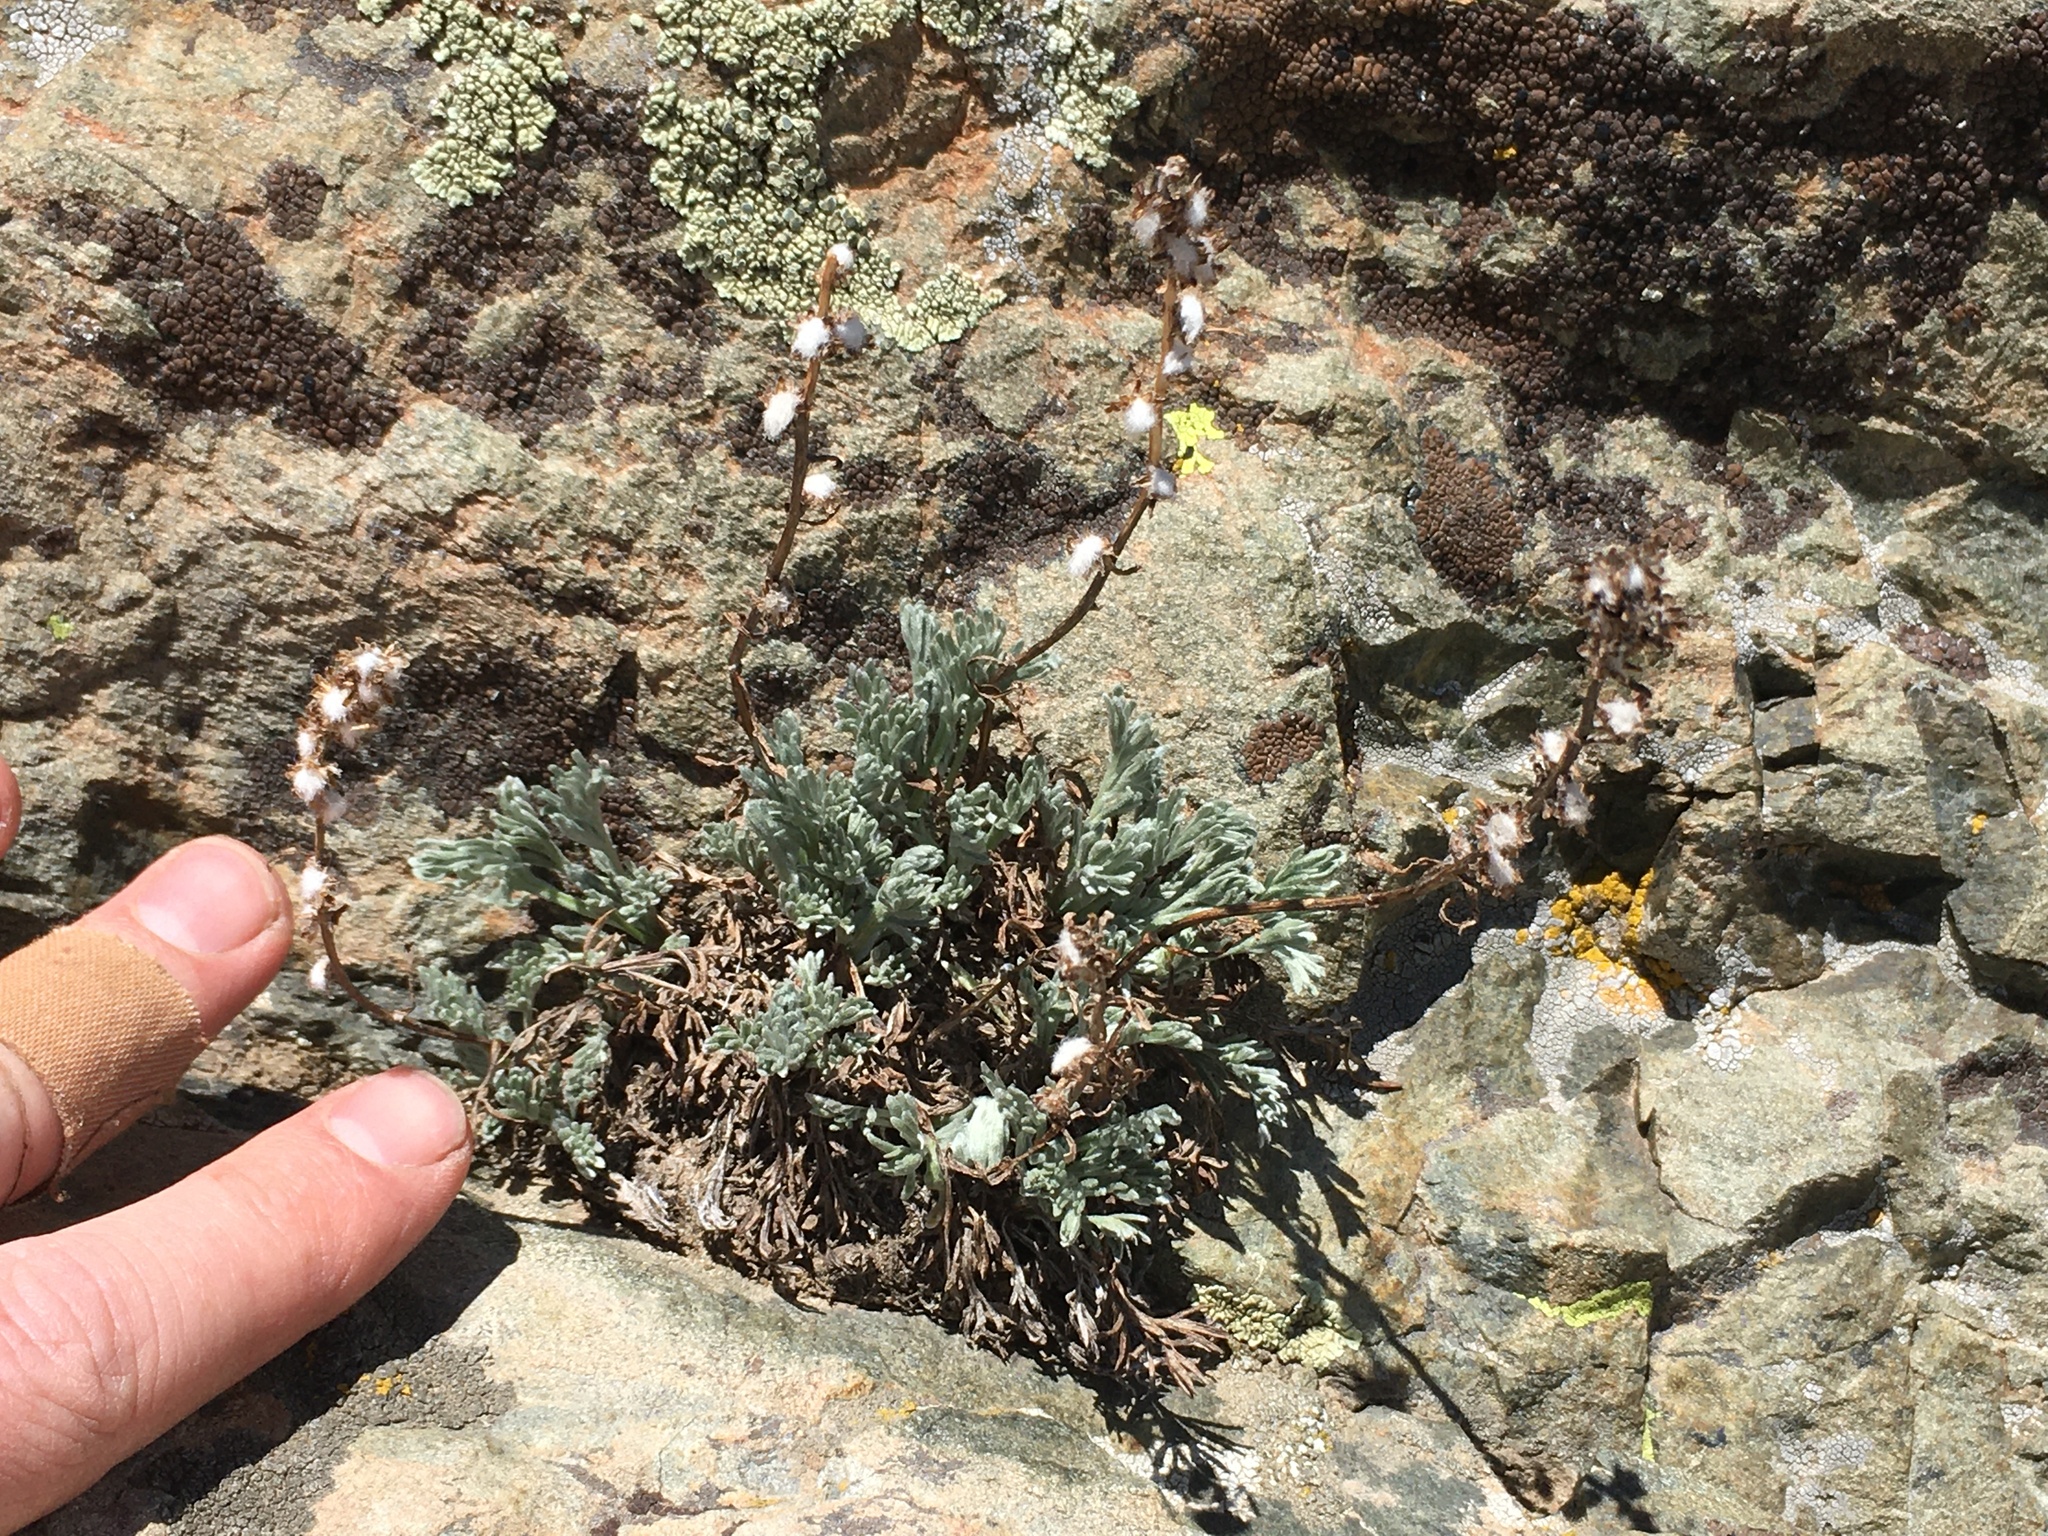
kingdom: Plantae
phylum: Tracheophyta
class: Magnoliopsida
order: Asterales
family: Asteraceae
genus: Artemisia
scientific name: Artemisia scopulorum
